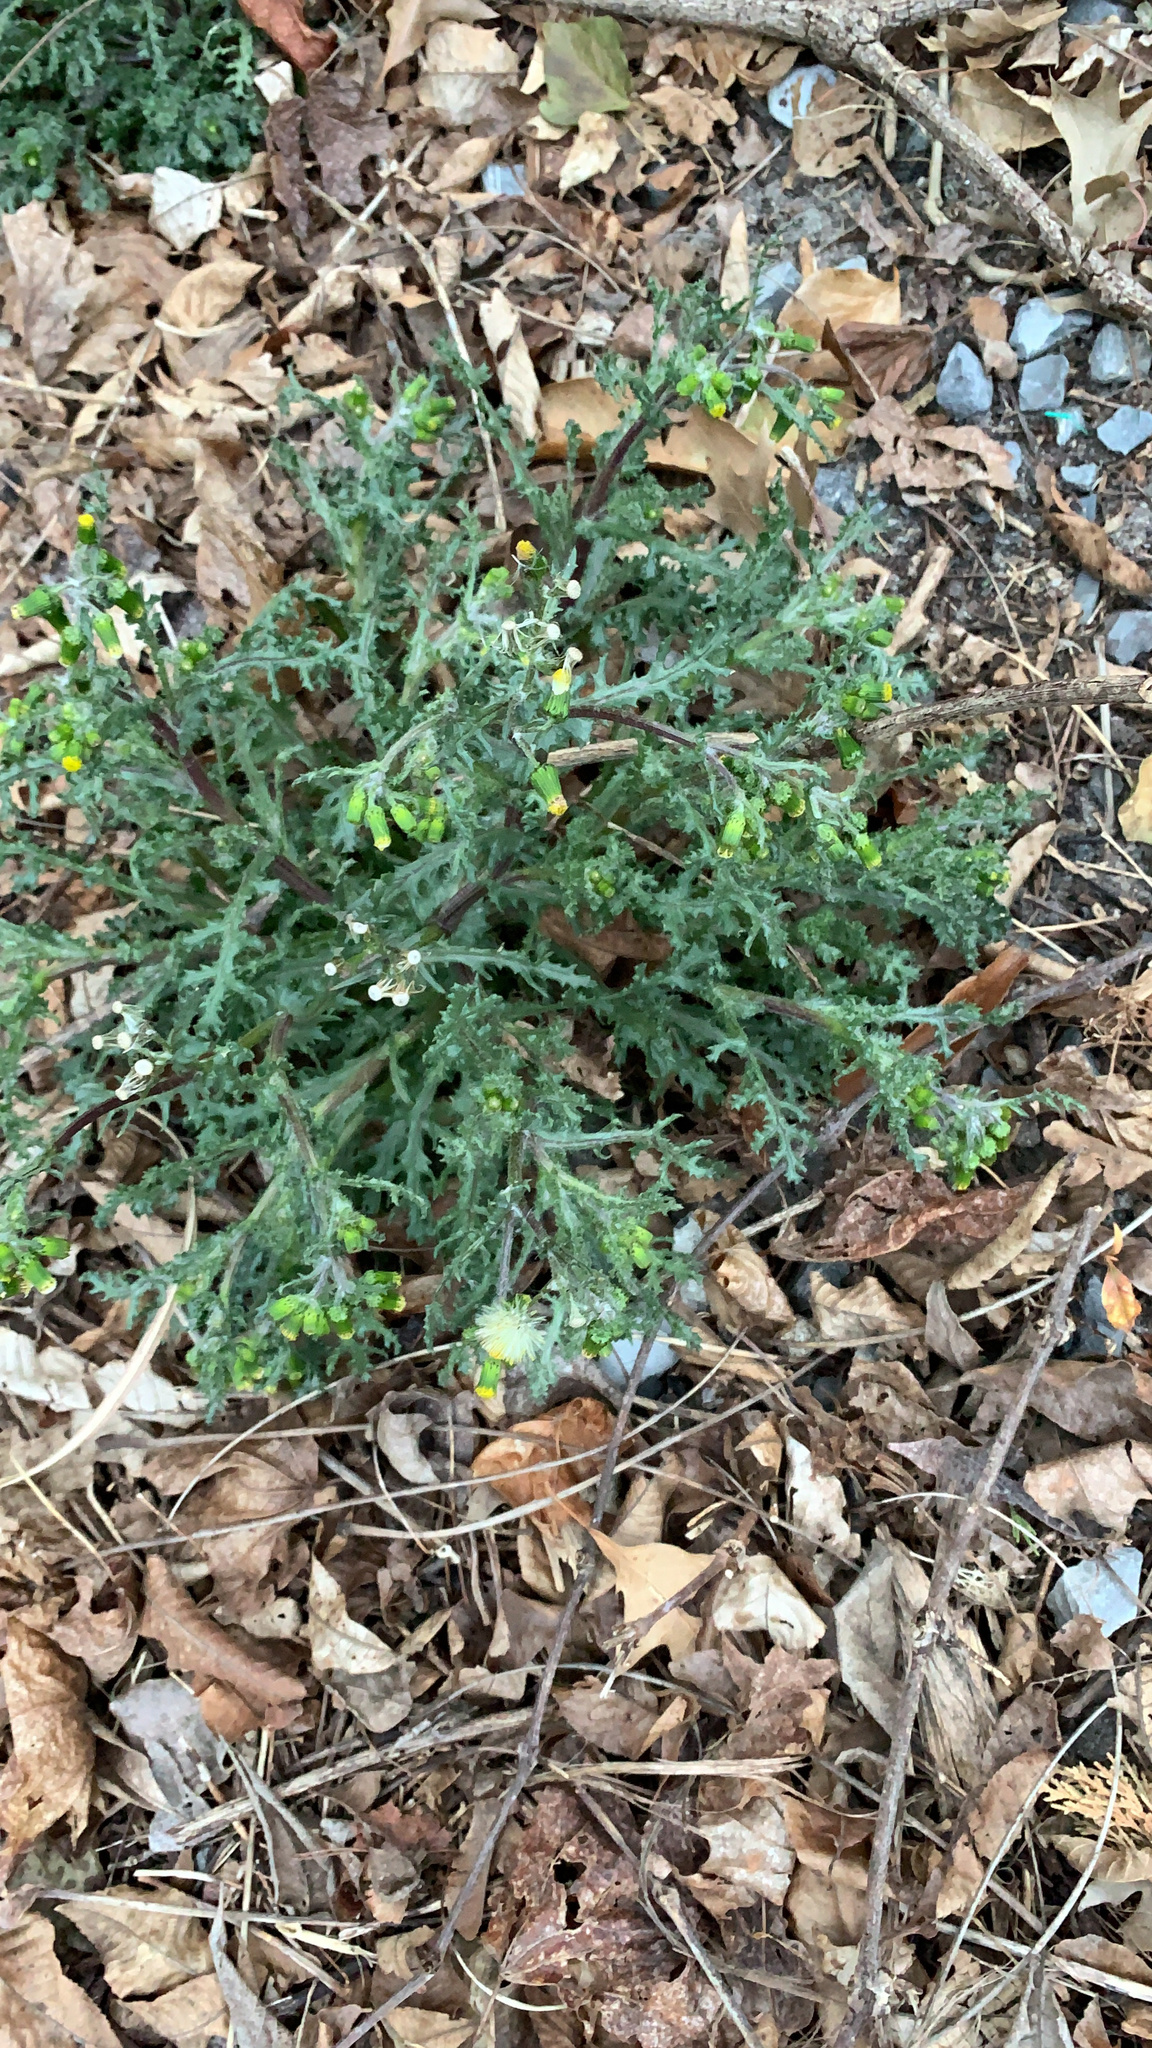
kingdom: Plantae
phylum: Tracheophyta
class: Magnoliopsida
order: Asterales
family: Asteraceae
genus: Senecio
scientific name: Senecio vulgaris
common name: Old-man-in-the-spring
